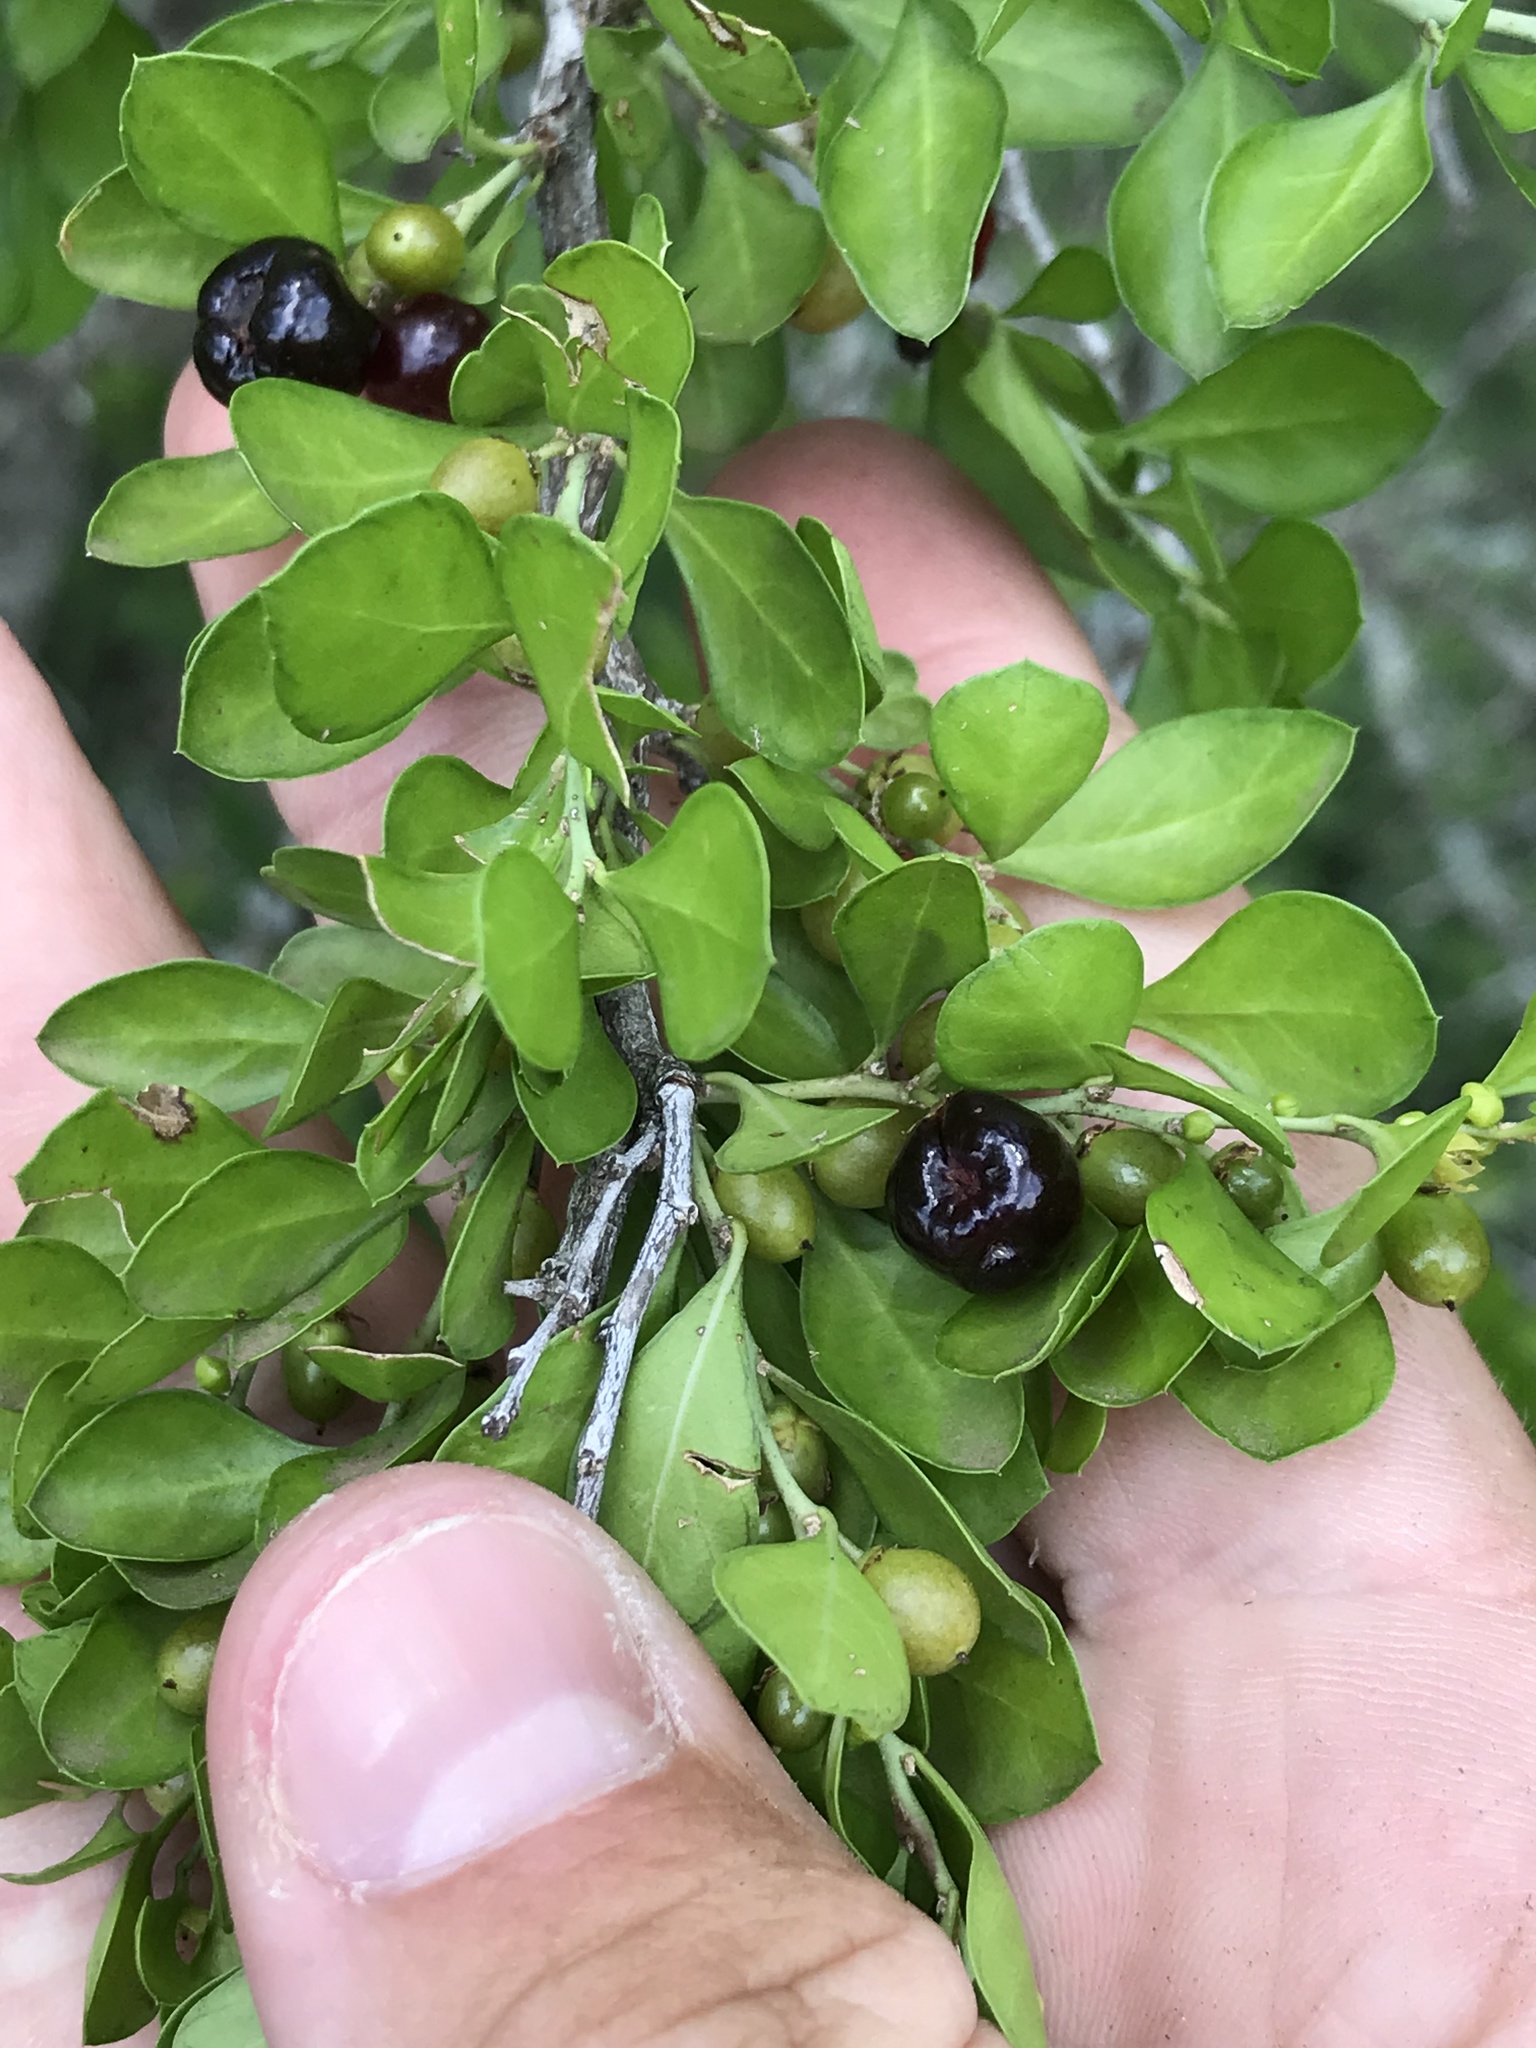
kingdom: Plantae
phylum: Tracheophyta
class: Magnoliopsida
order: Rosales
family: Rhamnaceae
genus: Condalia
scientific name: Condalia hookeri
